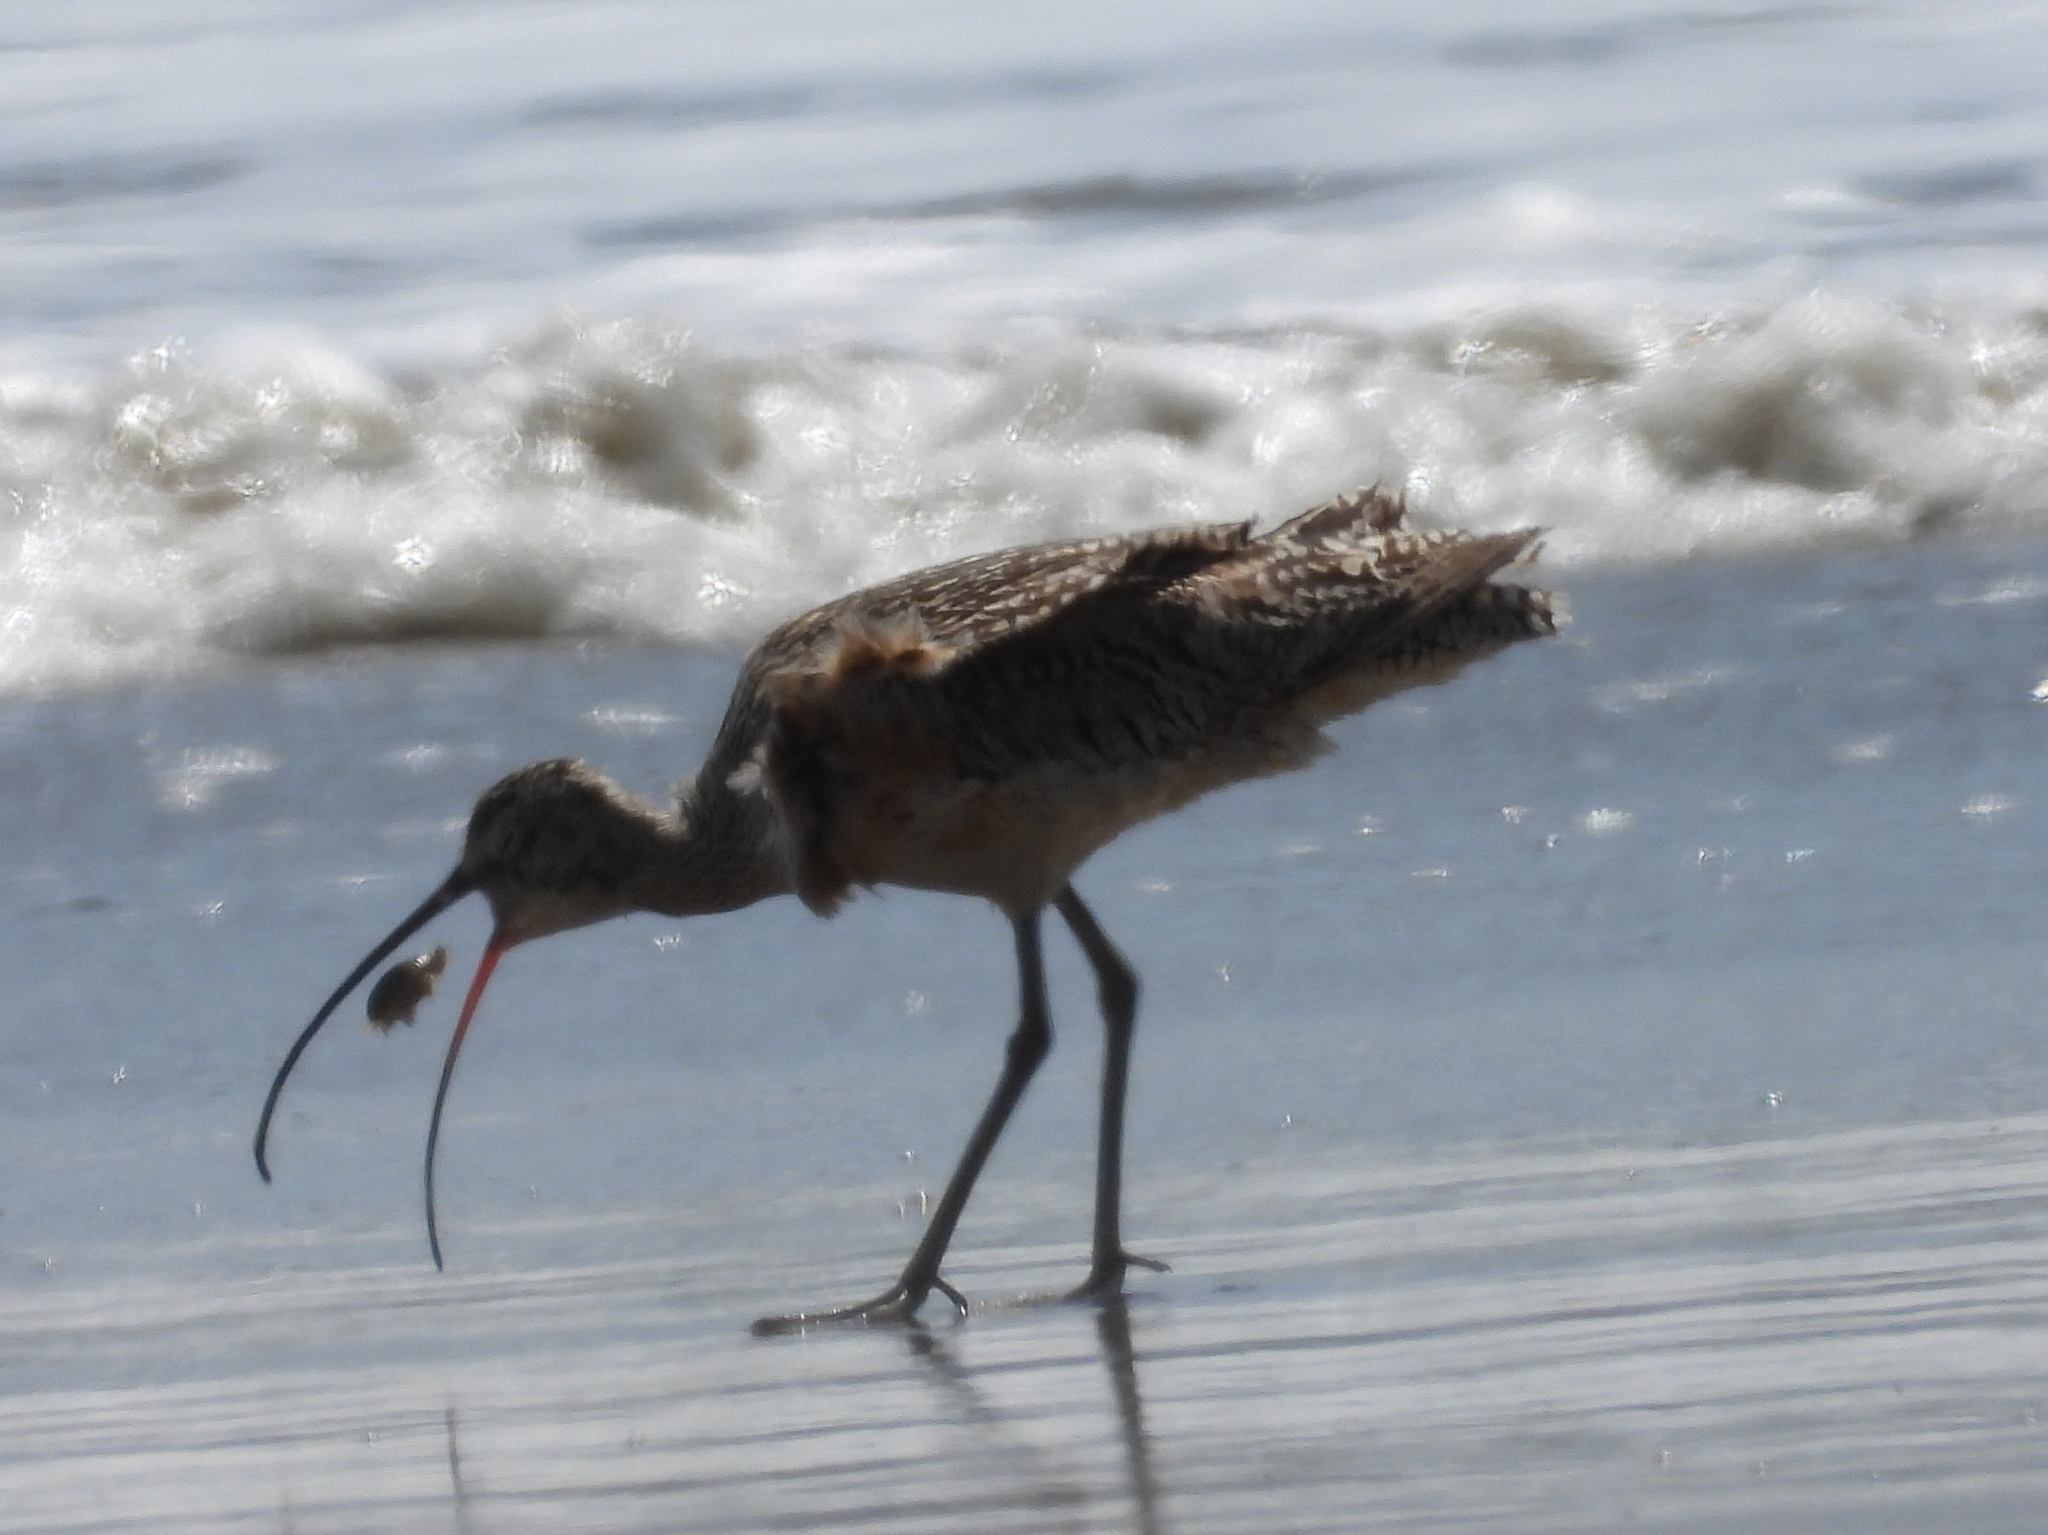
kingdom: Animalia
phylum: Chordata
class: Aves
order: Charadriiformes
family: Scolopacidae
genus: Numenius
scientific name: Numenius americanus
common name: Long-billed curlew
